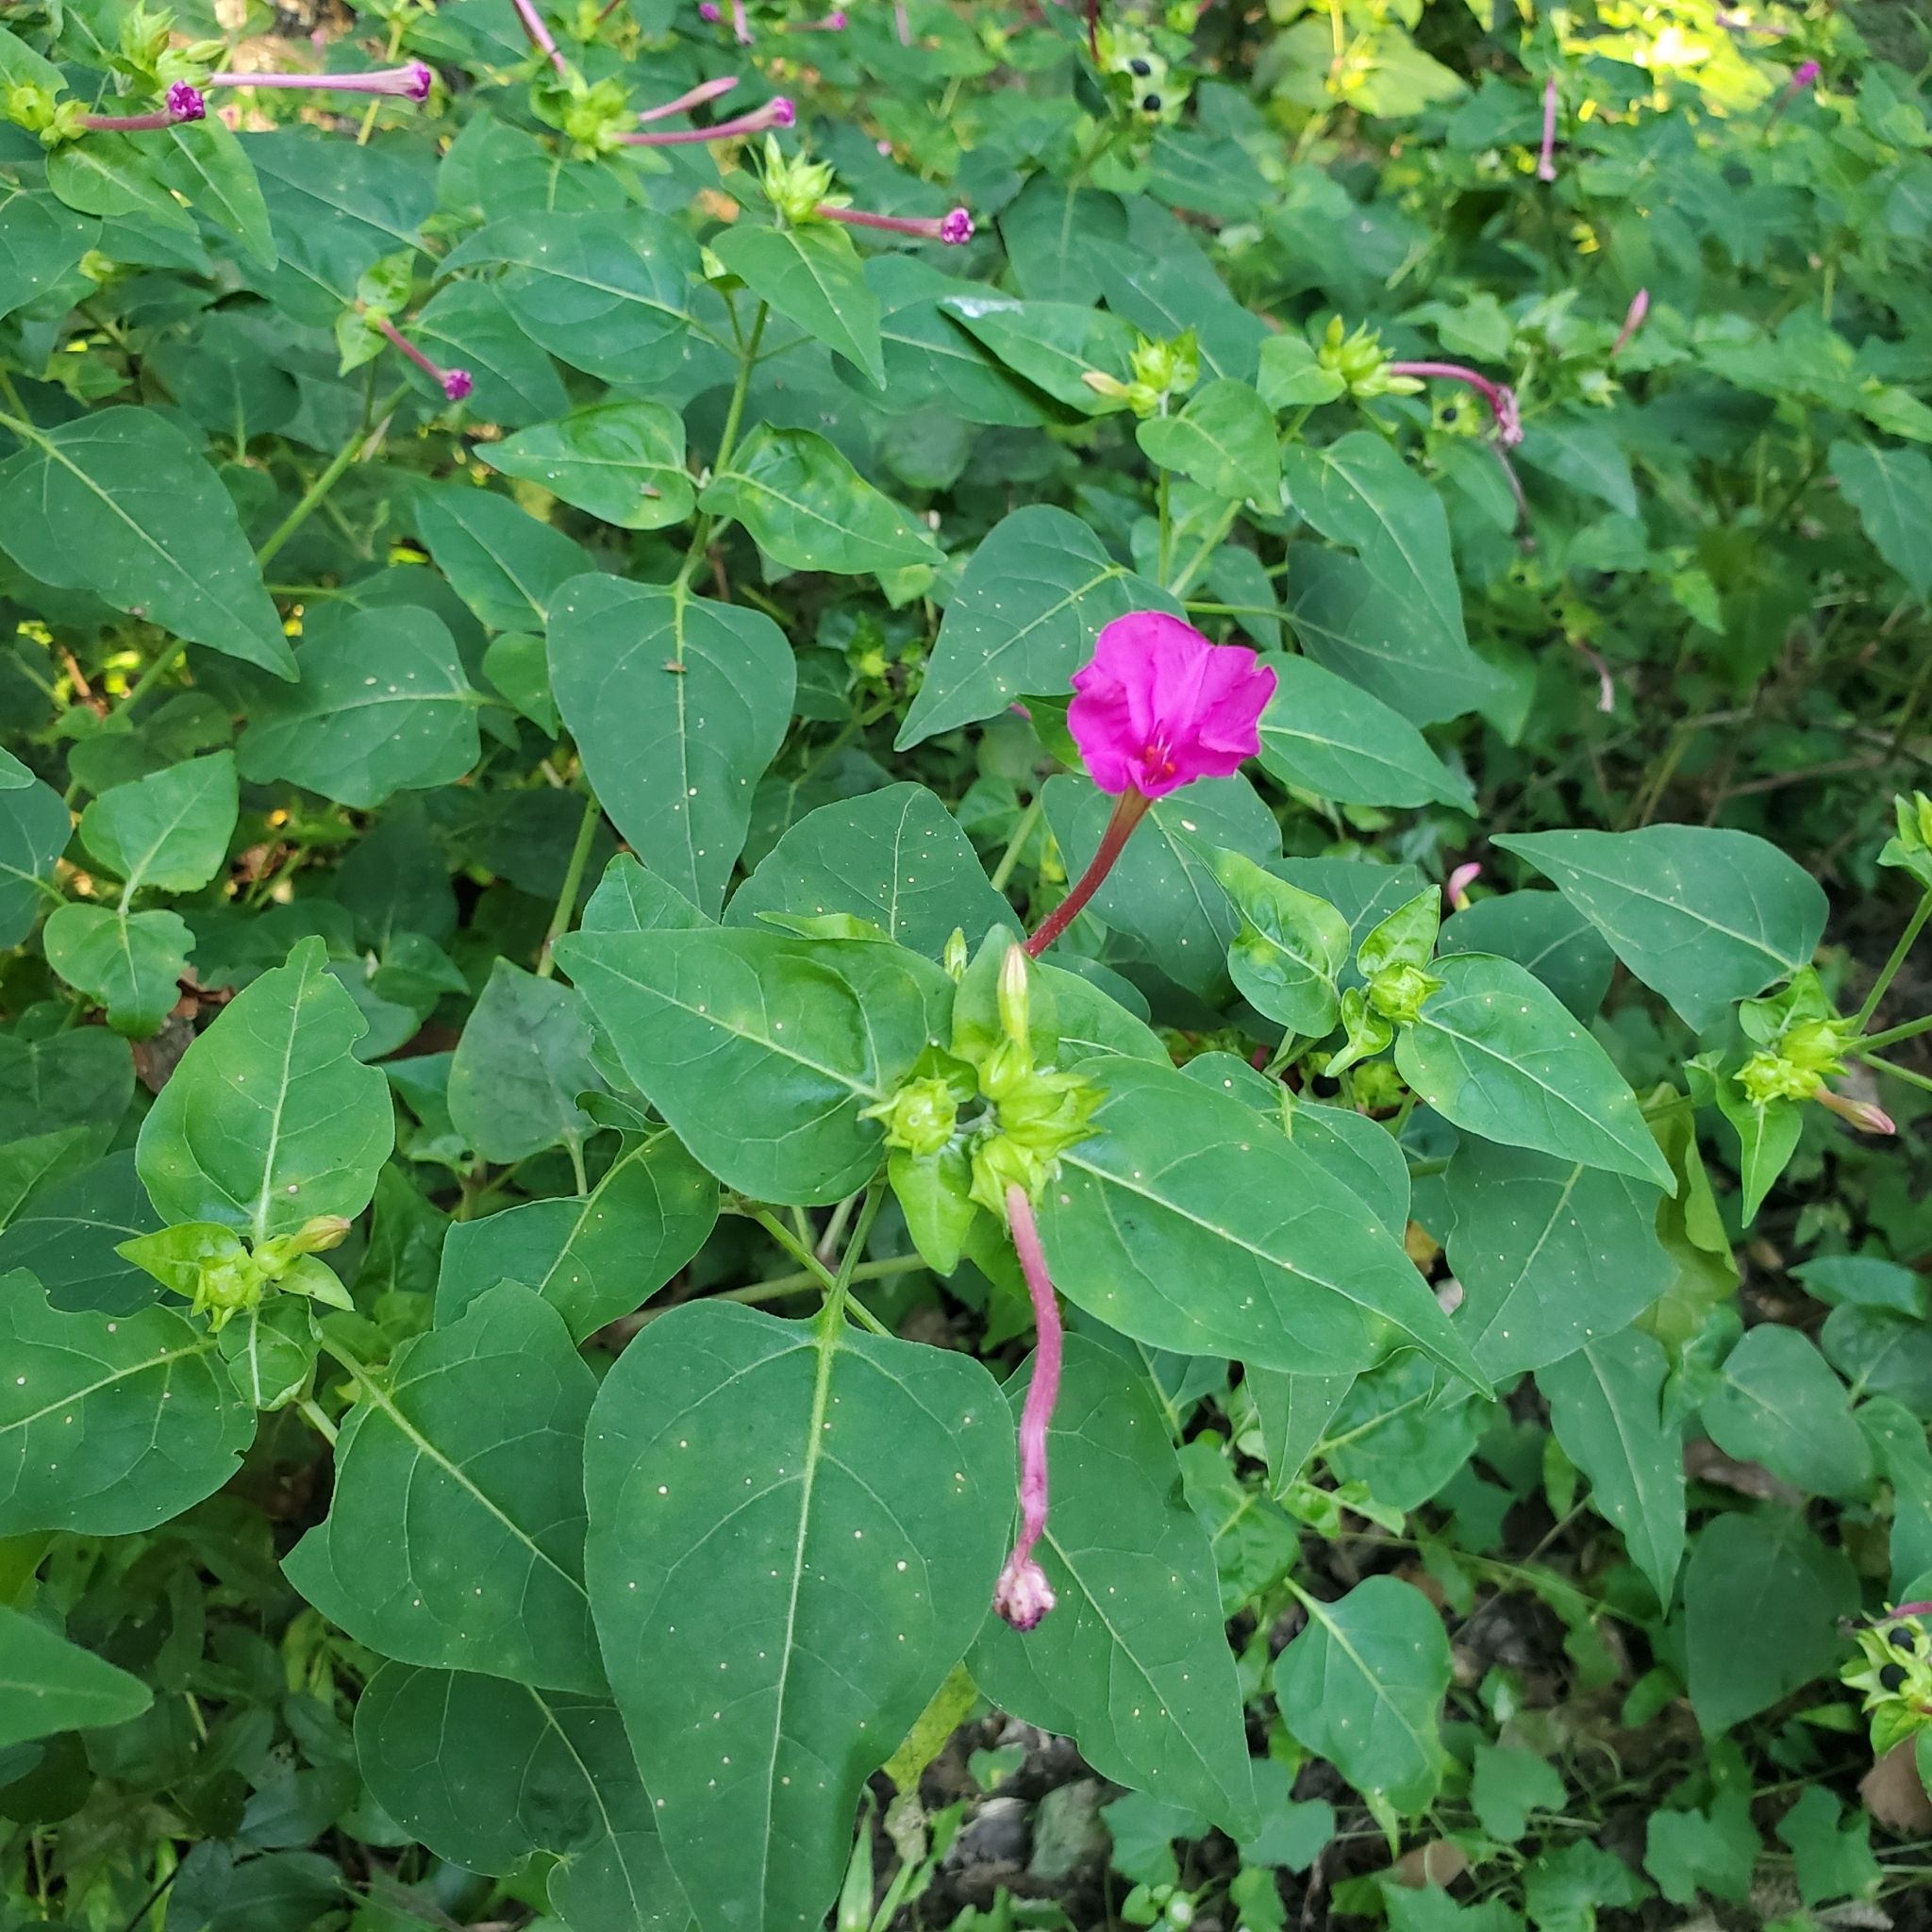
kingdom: Plantae
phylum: Tracheophyta
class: Magnoliopsida
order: Caryophyllales
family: Nyctaginaceae
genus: Mirabilis
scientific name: Mirabilis jalapa
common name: Marvel-of-peru
